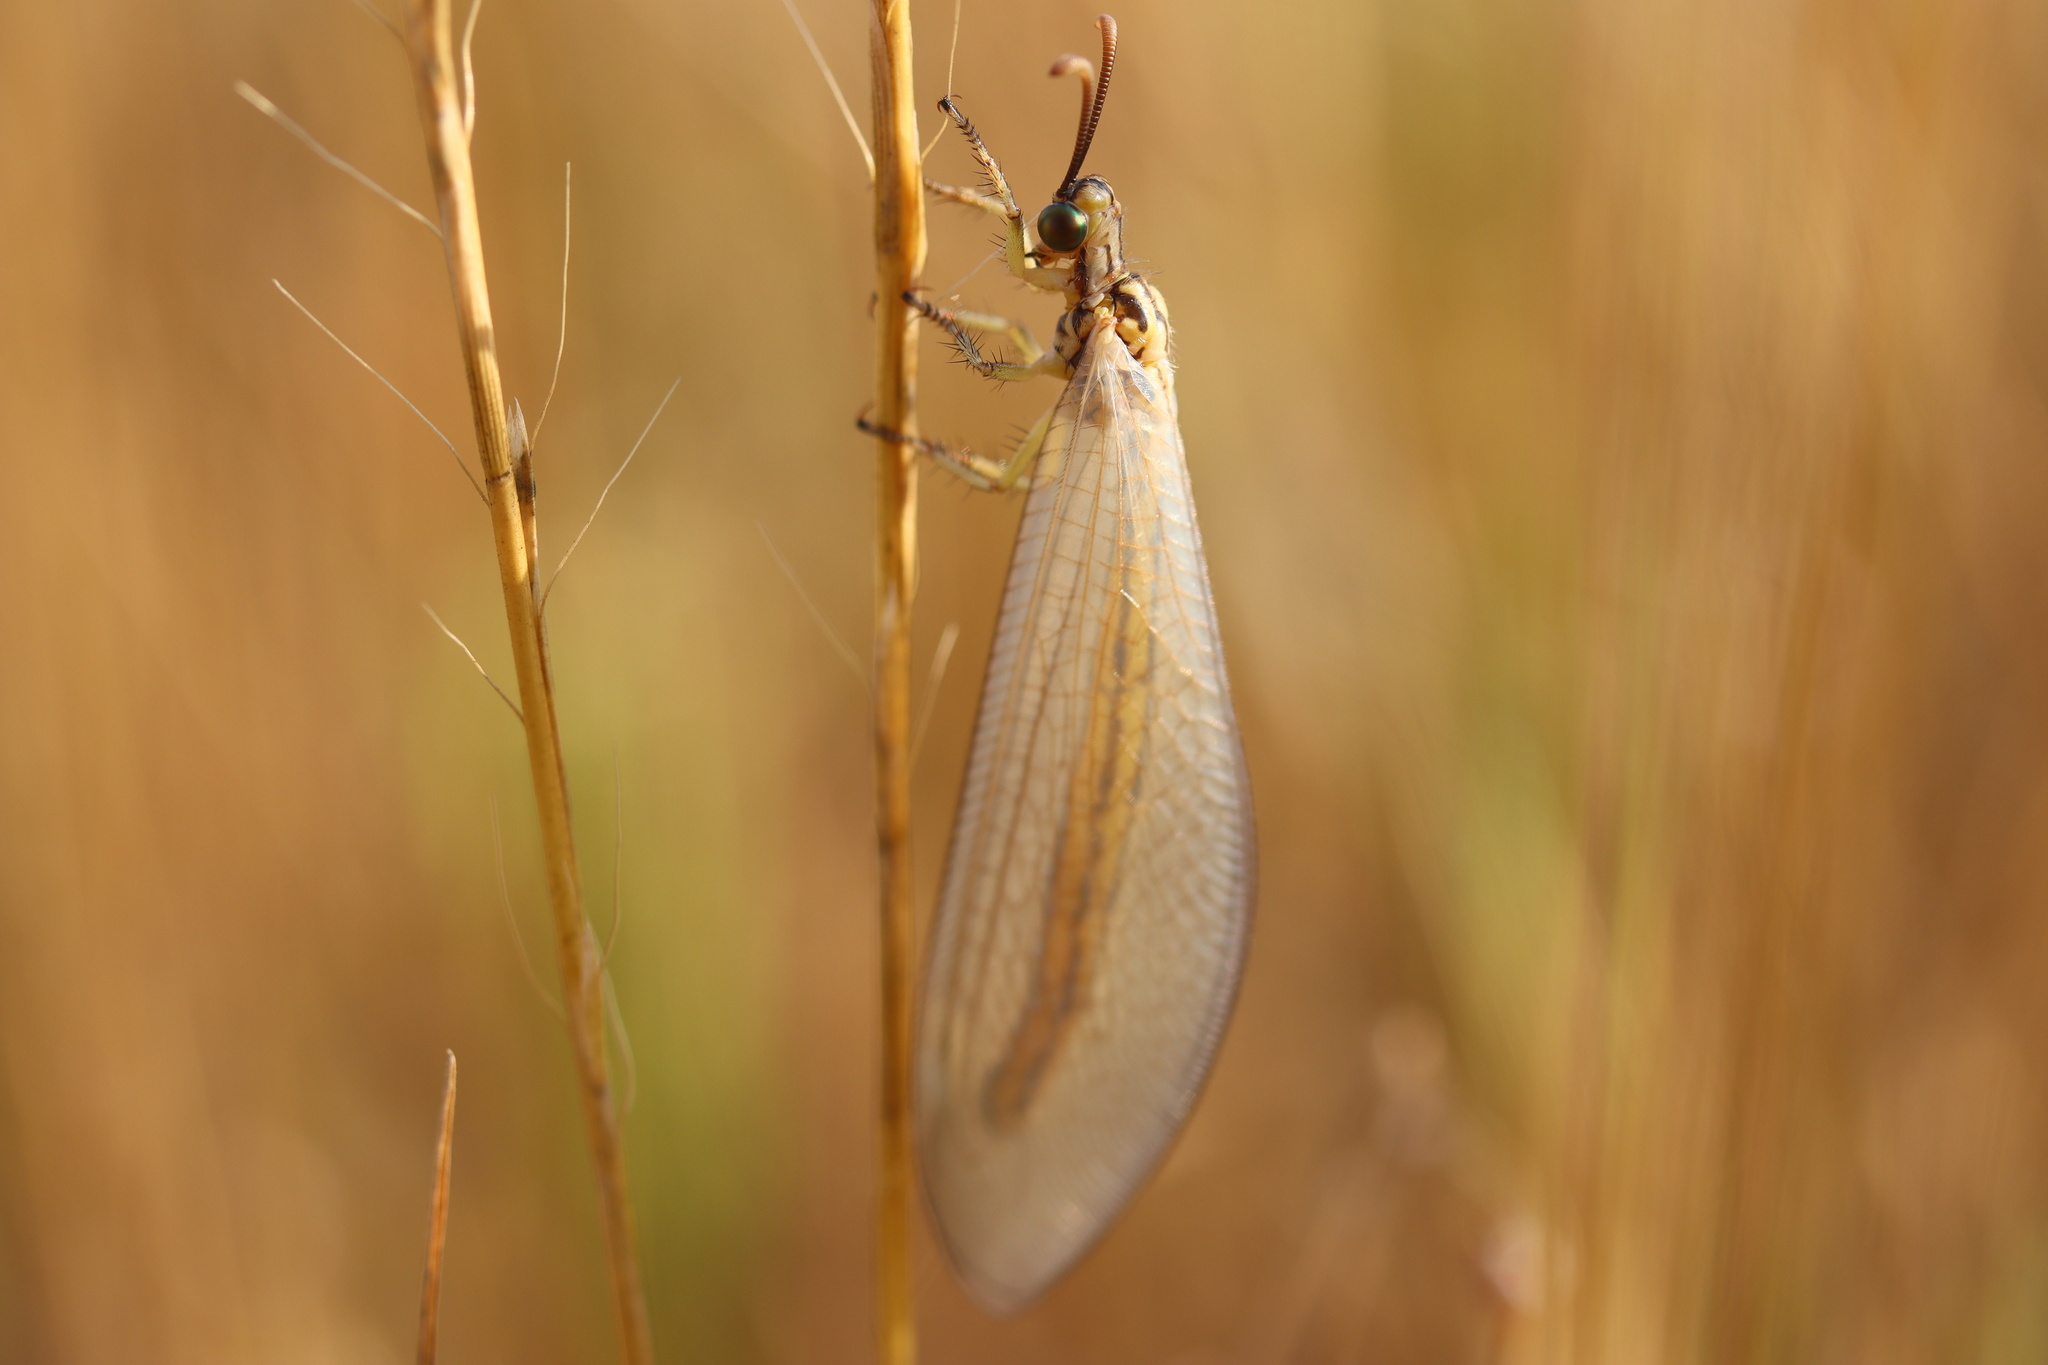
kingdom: Animalia
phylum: Arthropoda
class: Insecta
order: Neuroptera
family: Myrmeleontidae
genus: Myrmecaelurus
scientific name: Myrmecaelurus trigrammus
